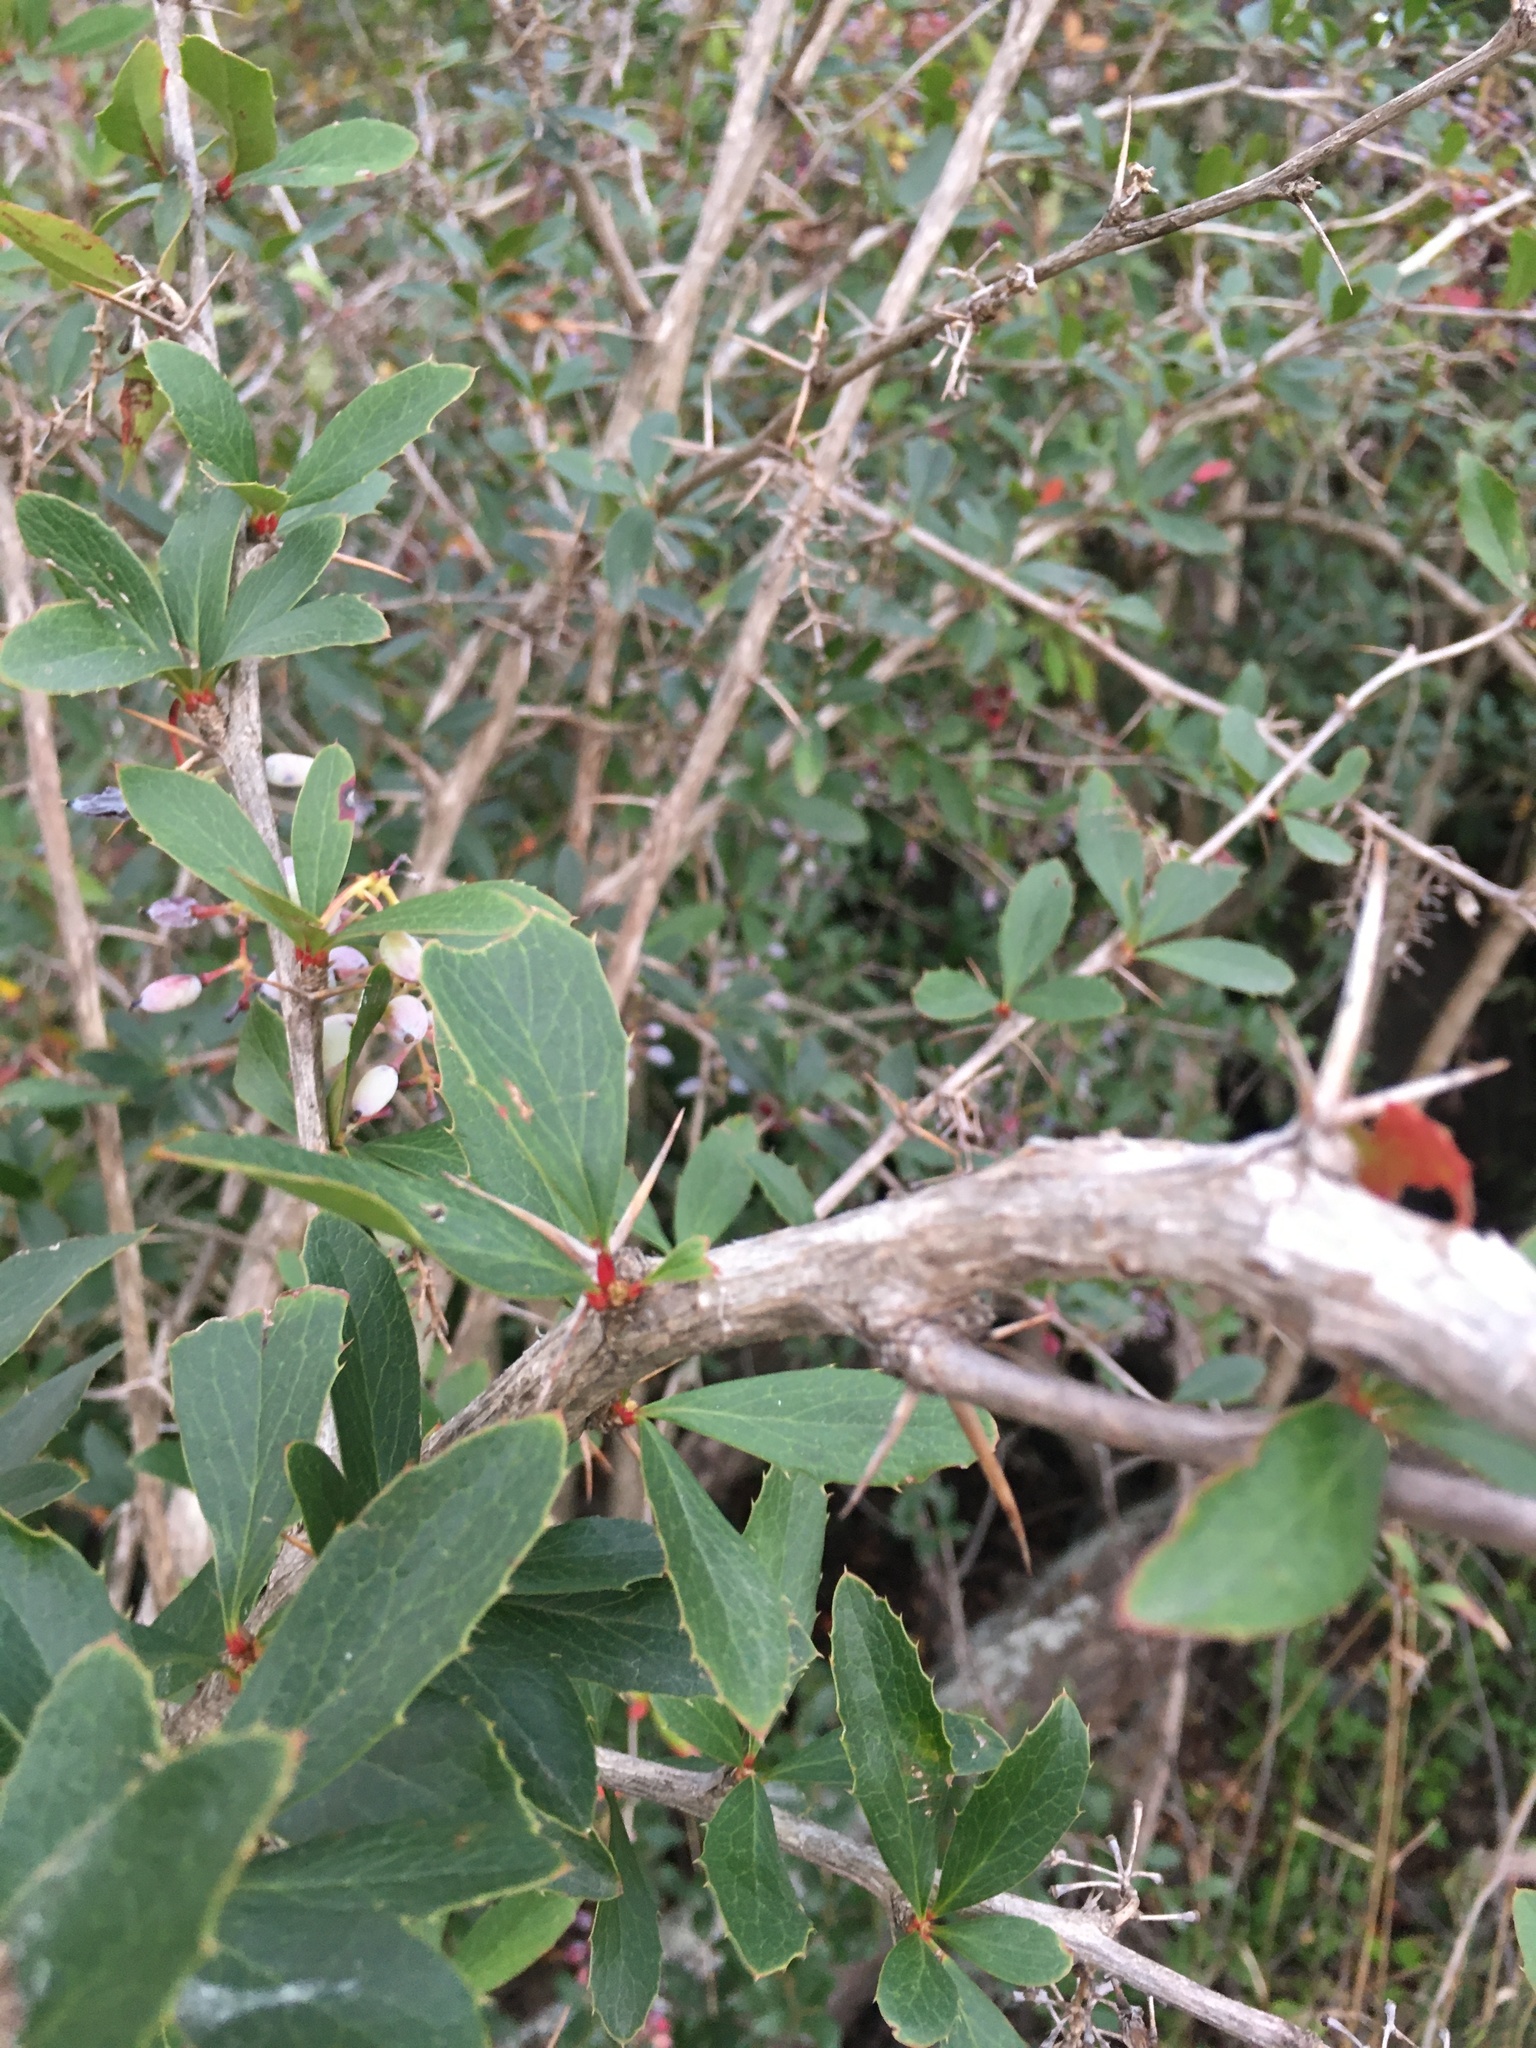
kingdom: Plantae
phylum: Tracheophyta
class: Magnoliopsida
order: Ranunculales
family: Berberidaceae
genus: Berberis
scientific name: Berberis glaucocarpa
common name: Great barberry
